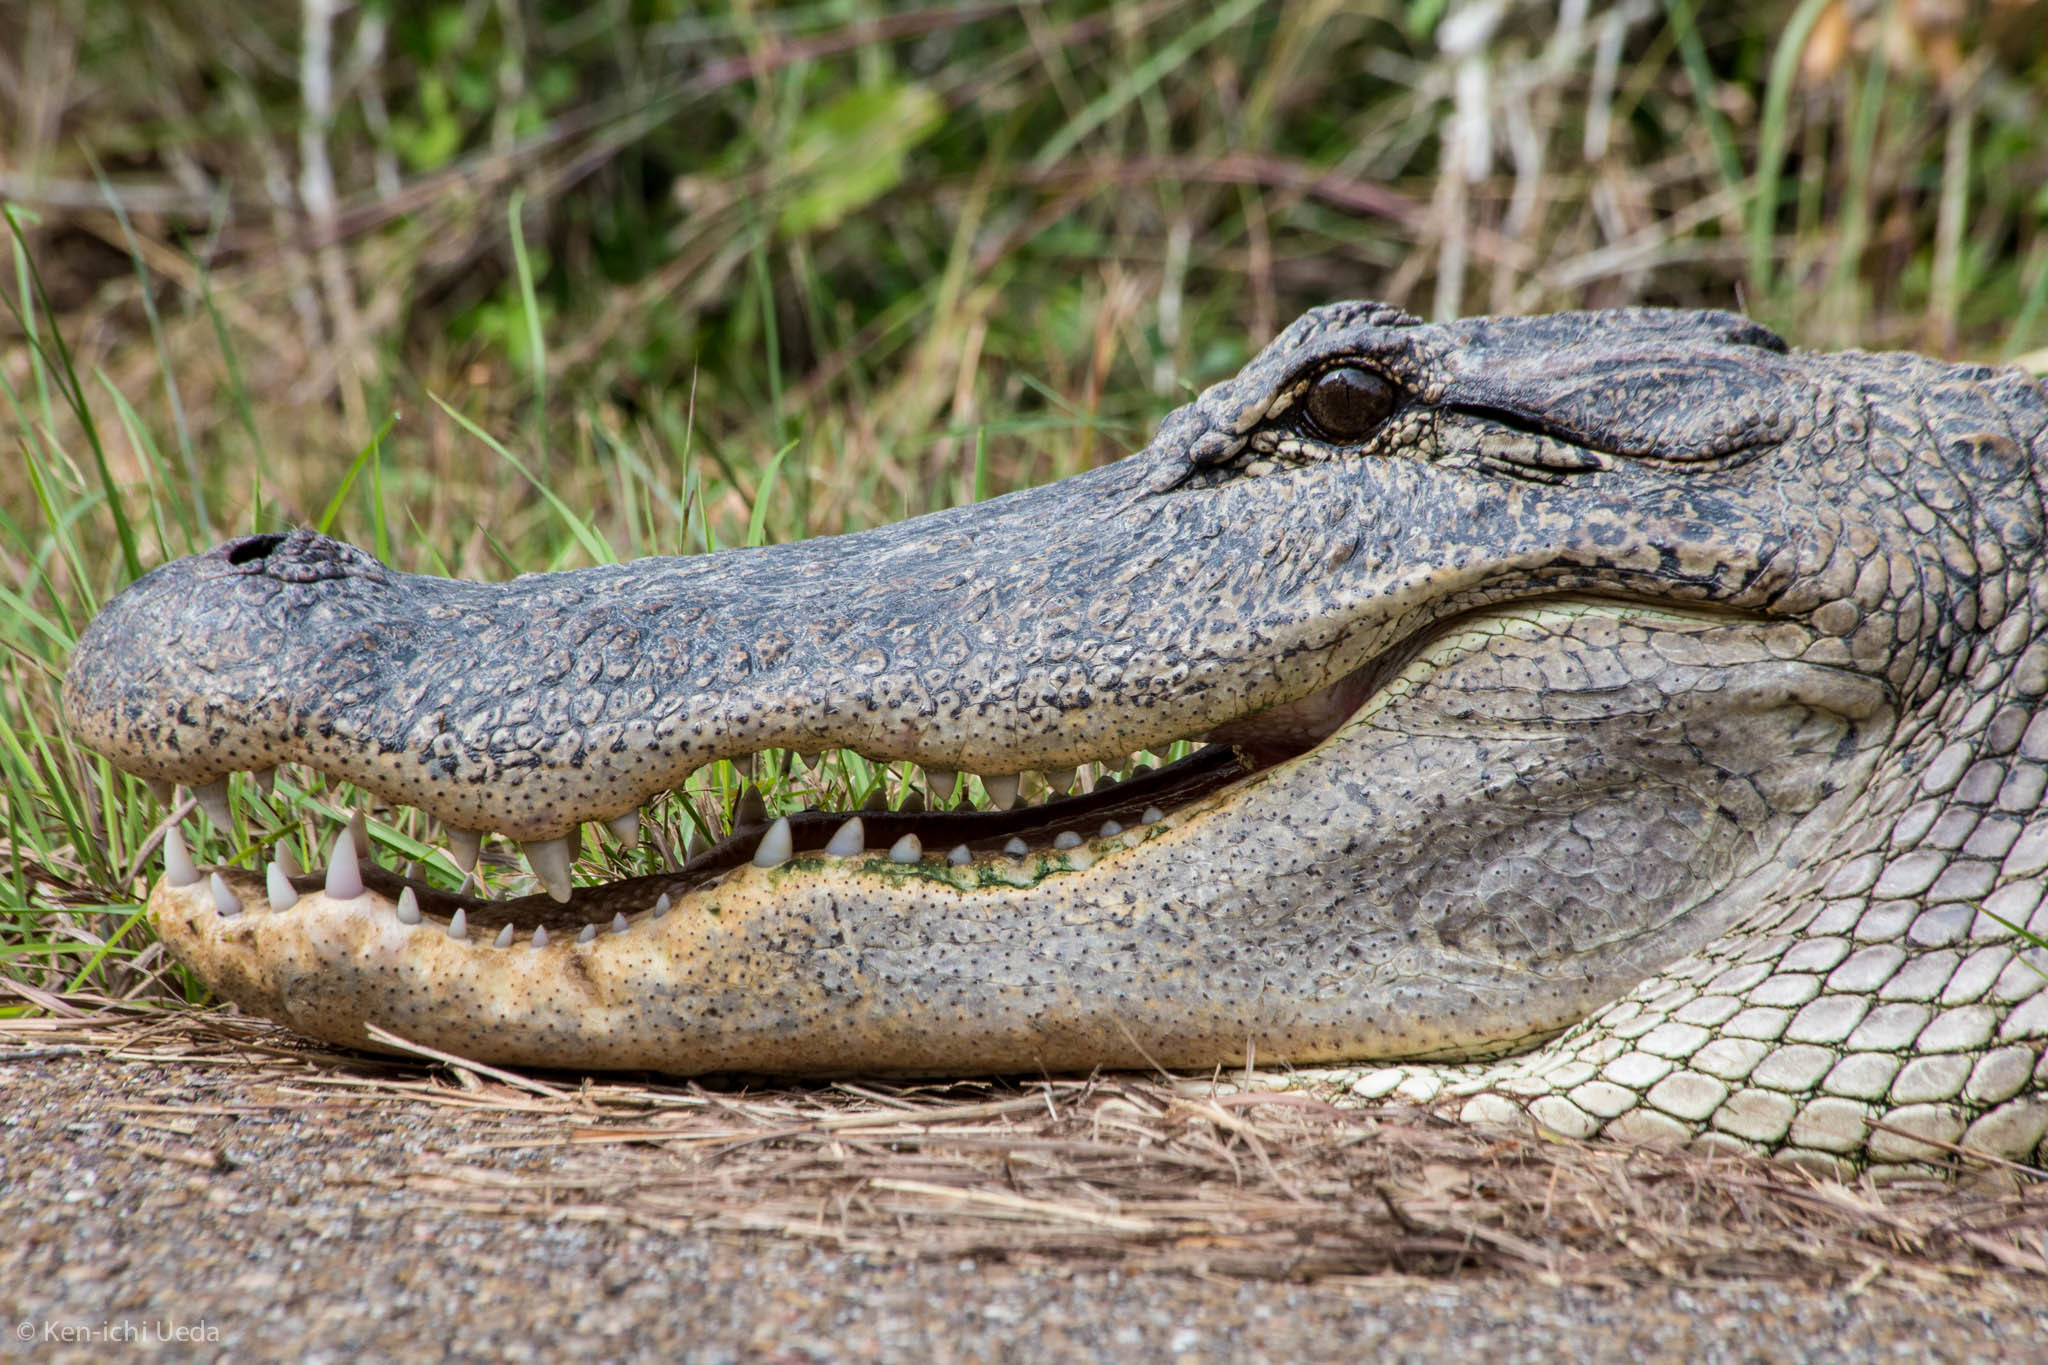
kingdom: Animalia
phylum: Chordata
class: Crocodylia
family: Alligatoridae
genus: Alligator
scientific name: Alligator mississippiensis
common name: American alligator
